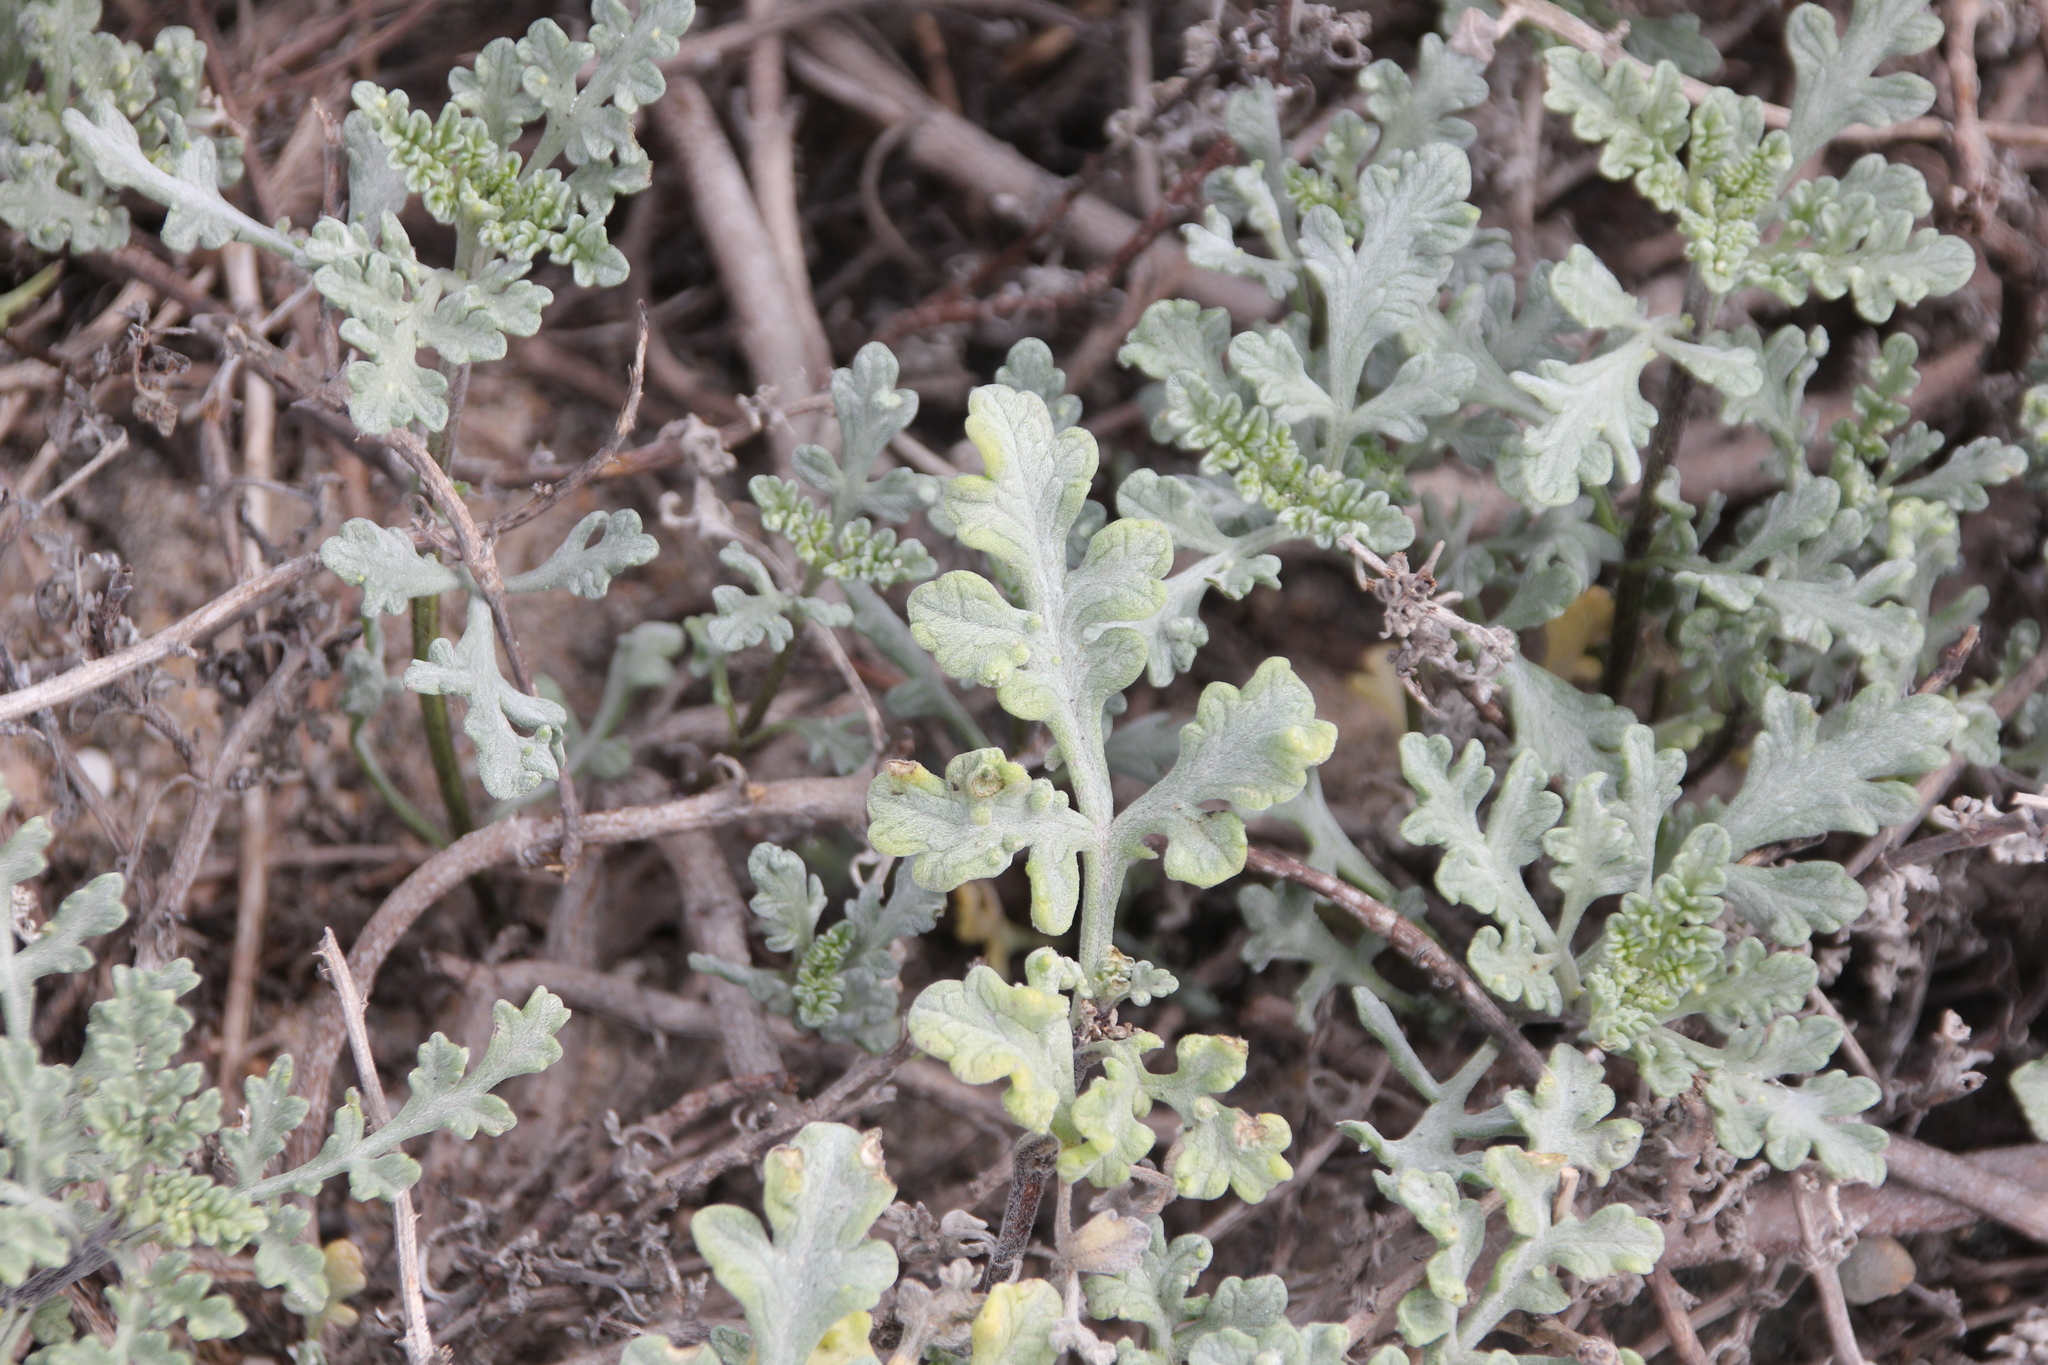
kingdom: Plantae
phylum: Tracheophyta
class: Magnoliopsida
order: Asterales
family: Asteraceae
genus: Ambrosia
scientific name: Ambrosia chamissonis
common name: Beachbur
